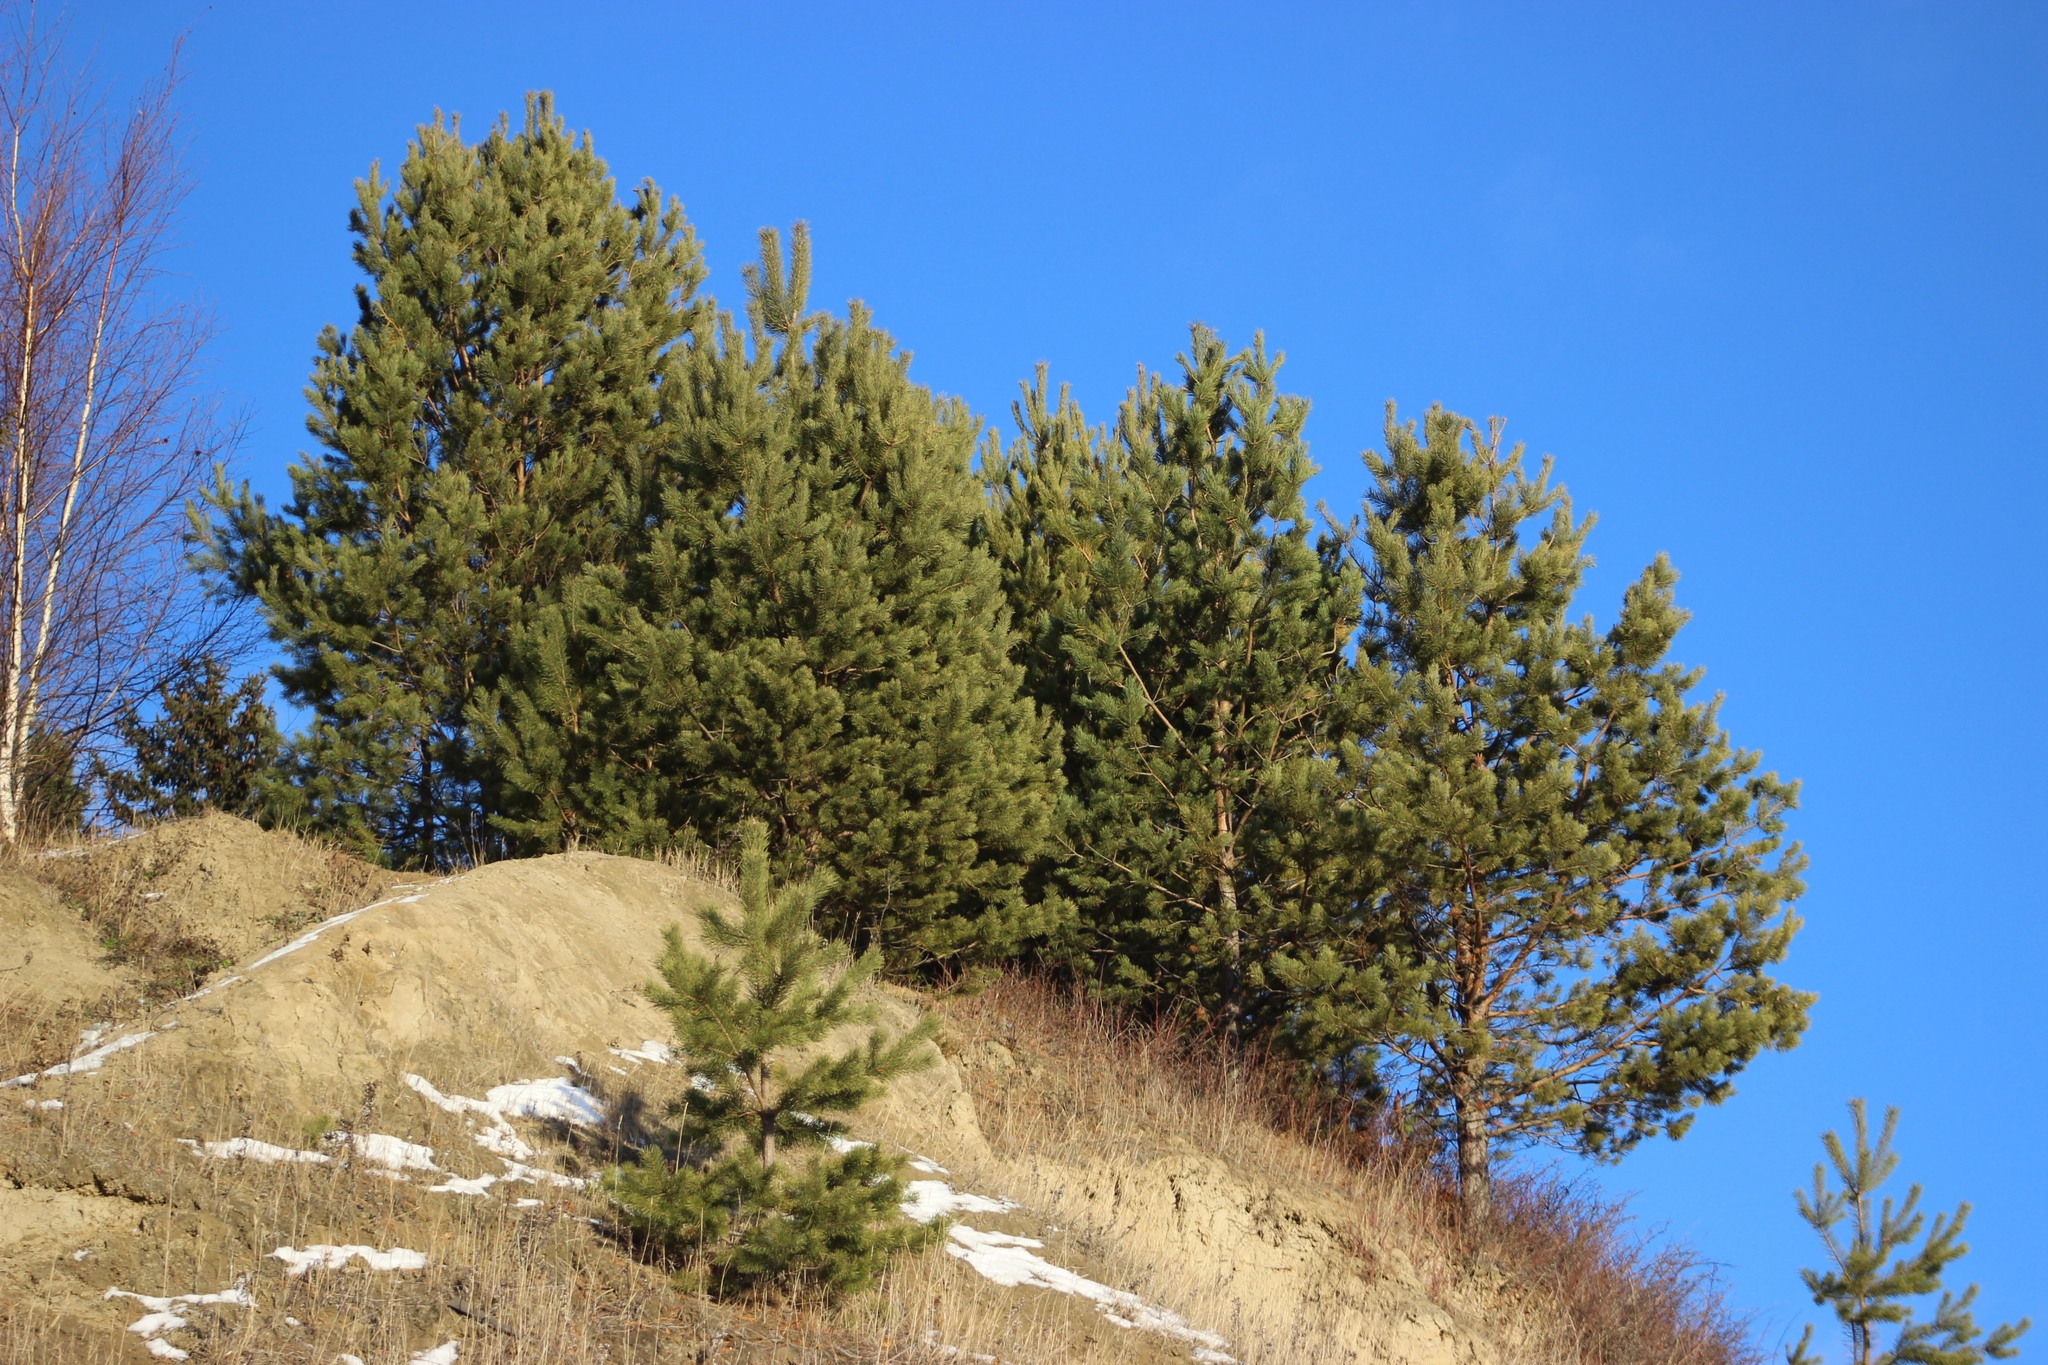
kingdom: Plantae
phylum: Tracheophyta
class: Pinopsida
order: Pinales
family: Pinaceae
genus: Pinus
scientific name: Pinus sylvestris
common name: Scots pine
